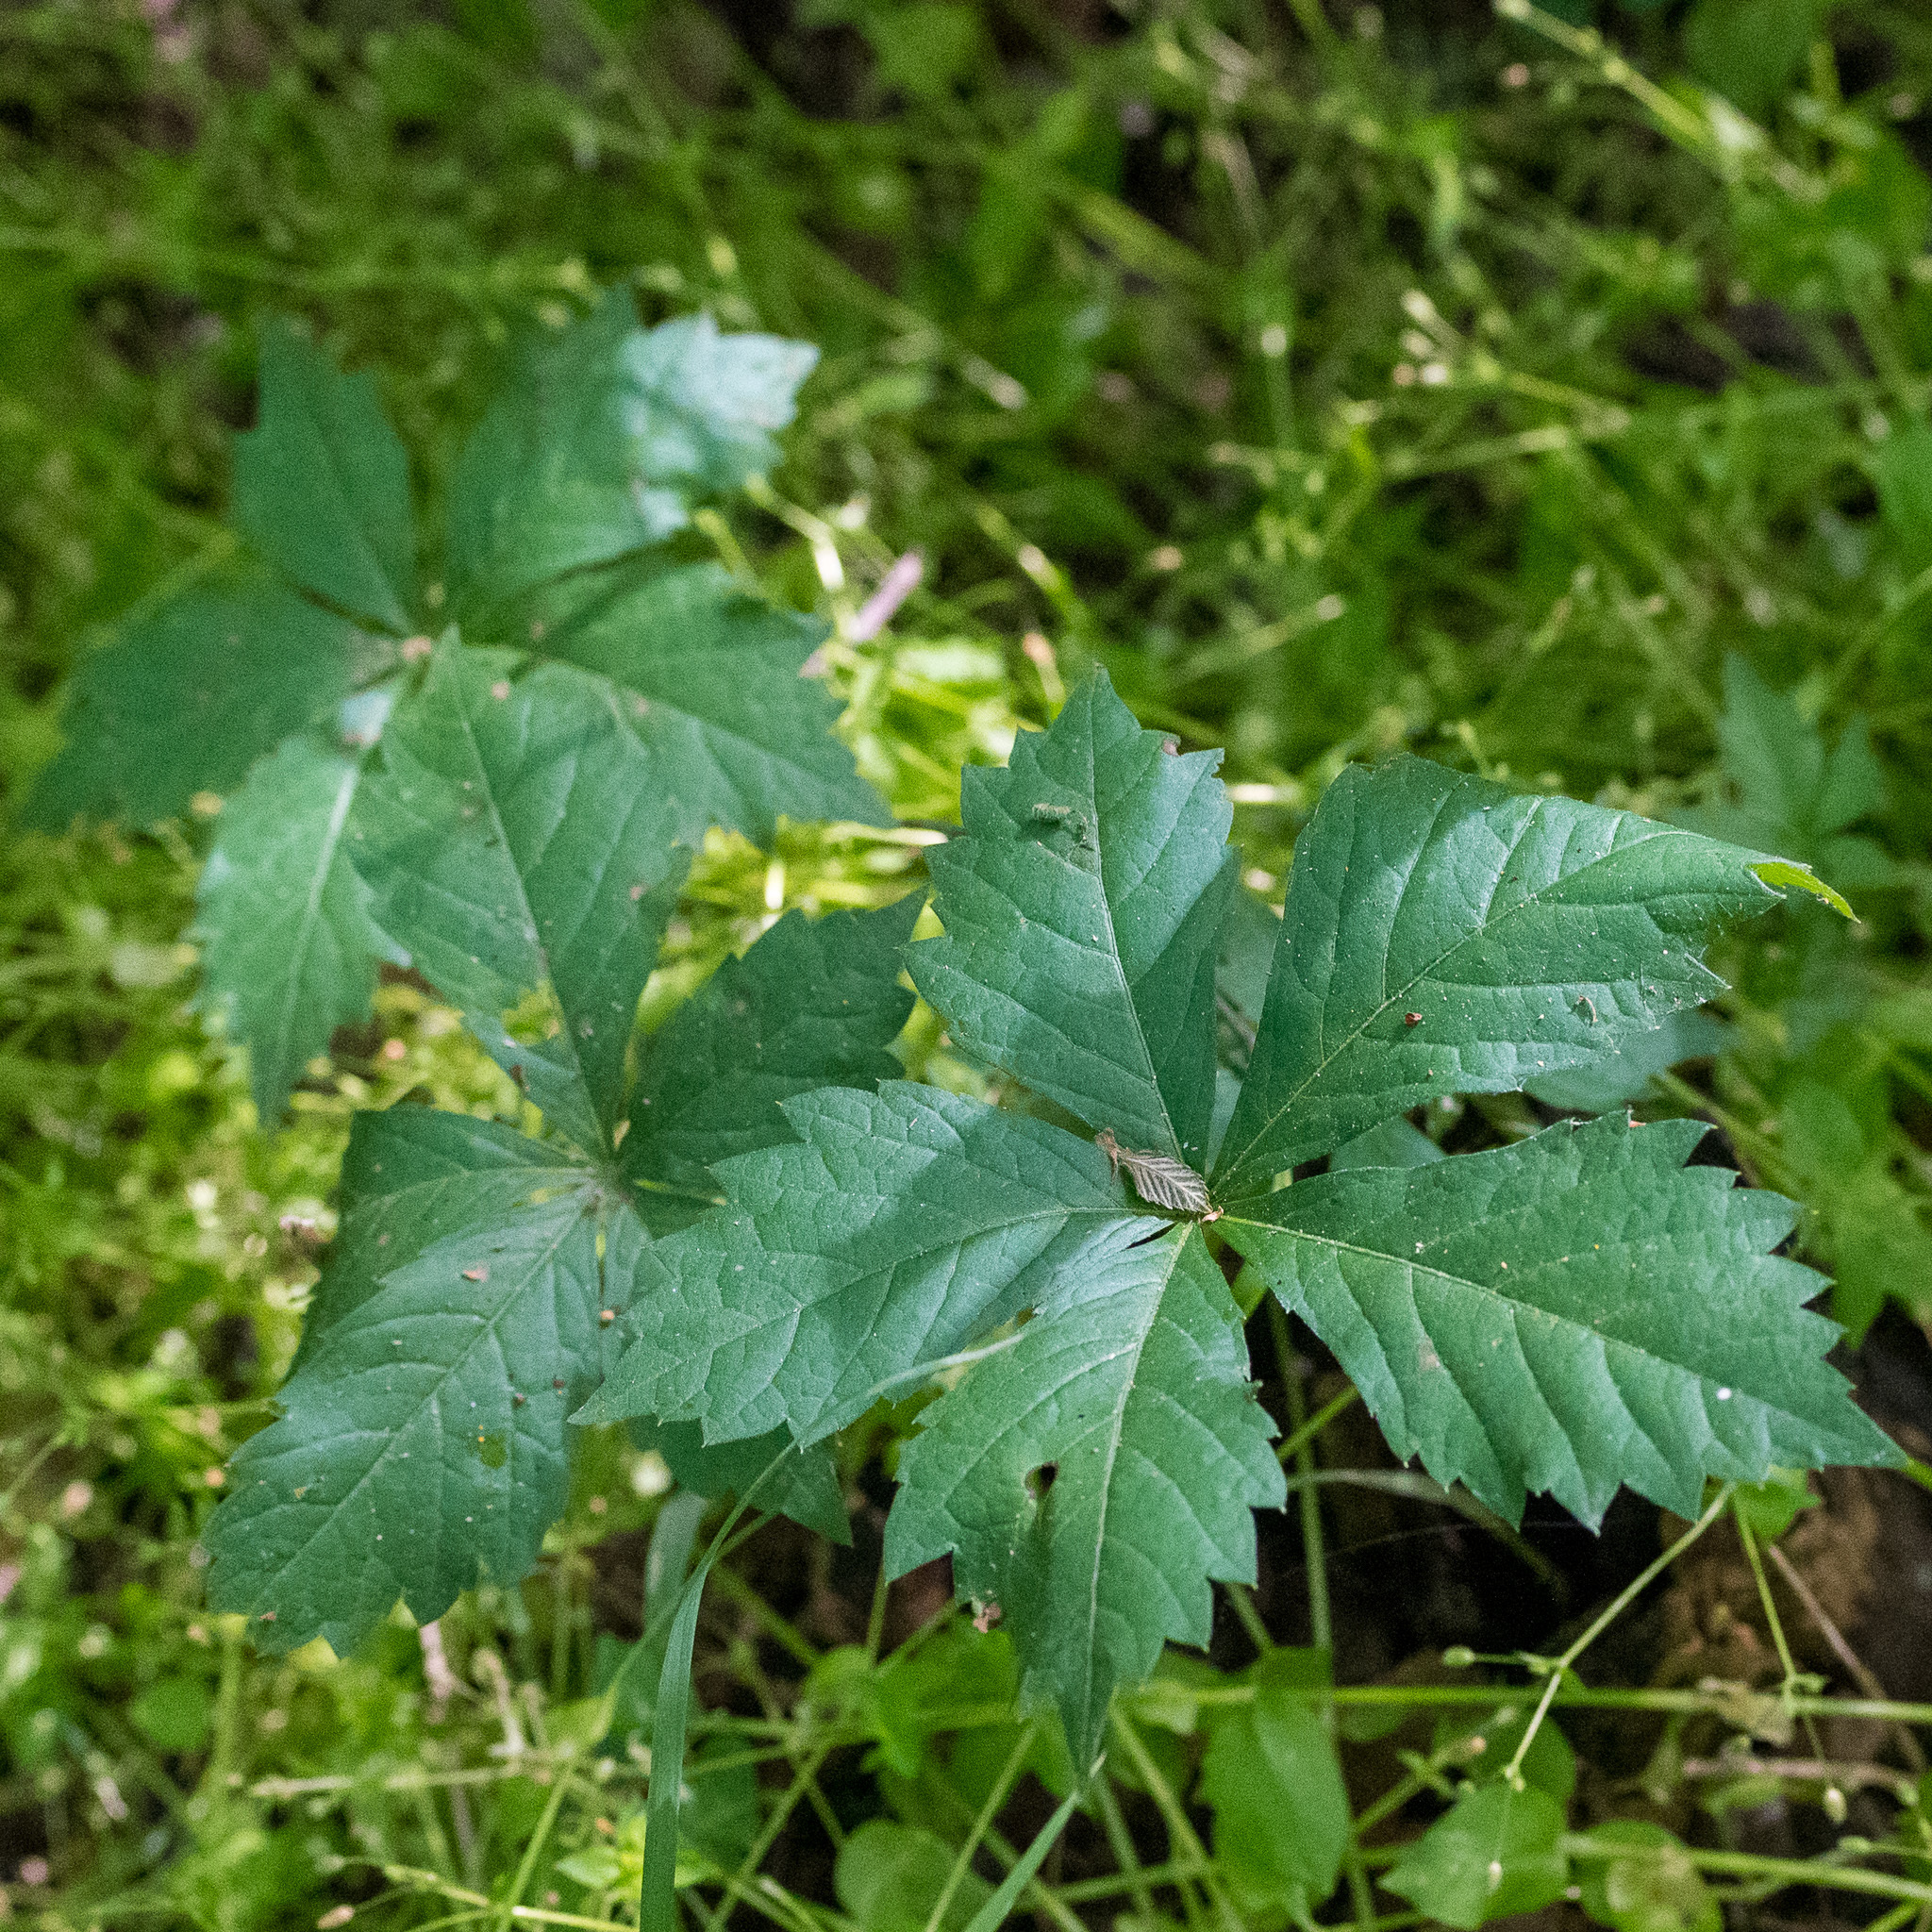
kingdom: Plantae
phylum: Tracheophyta
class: Magnoliopsida
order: Vitales
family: Vitaceae
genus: Parthenocissus
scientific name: Parthenocissus quinquefolia
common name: Virginia-creeper
